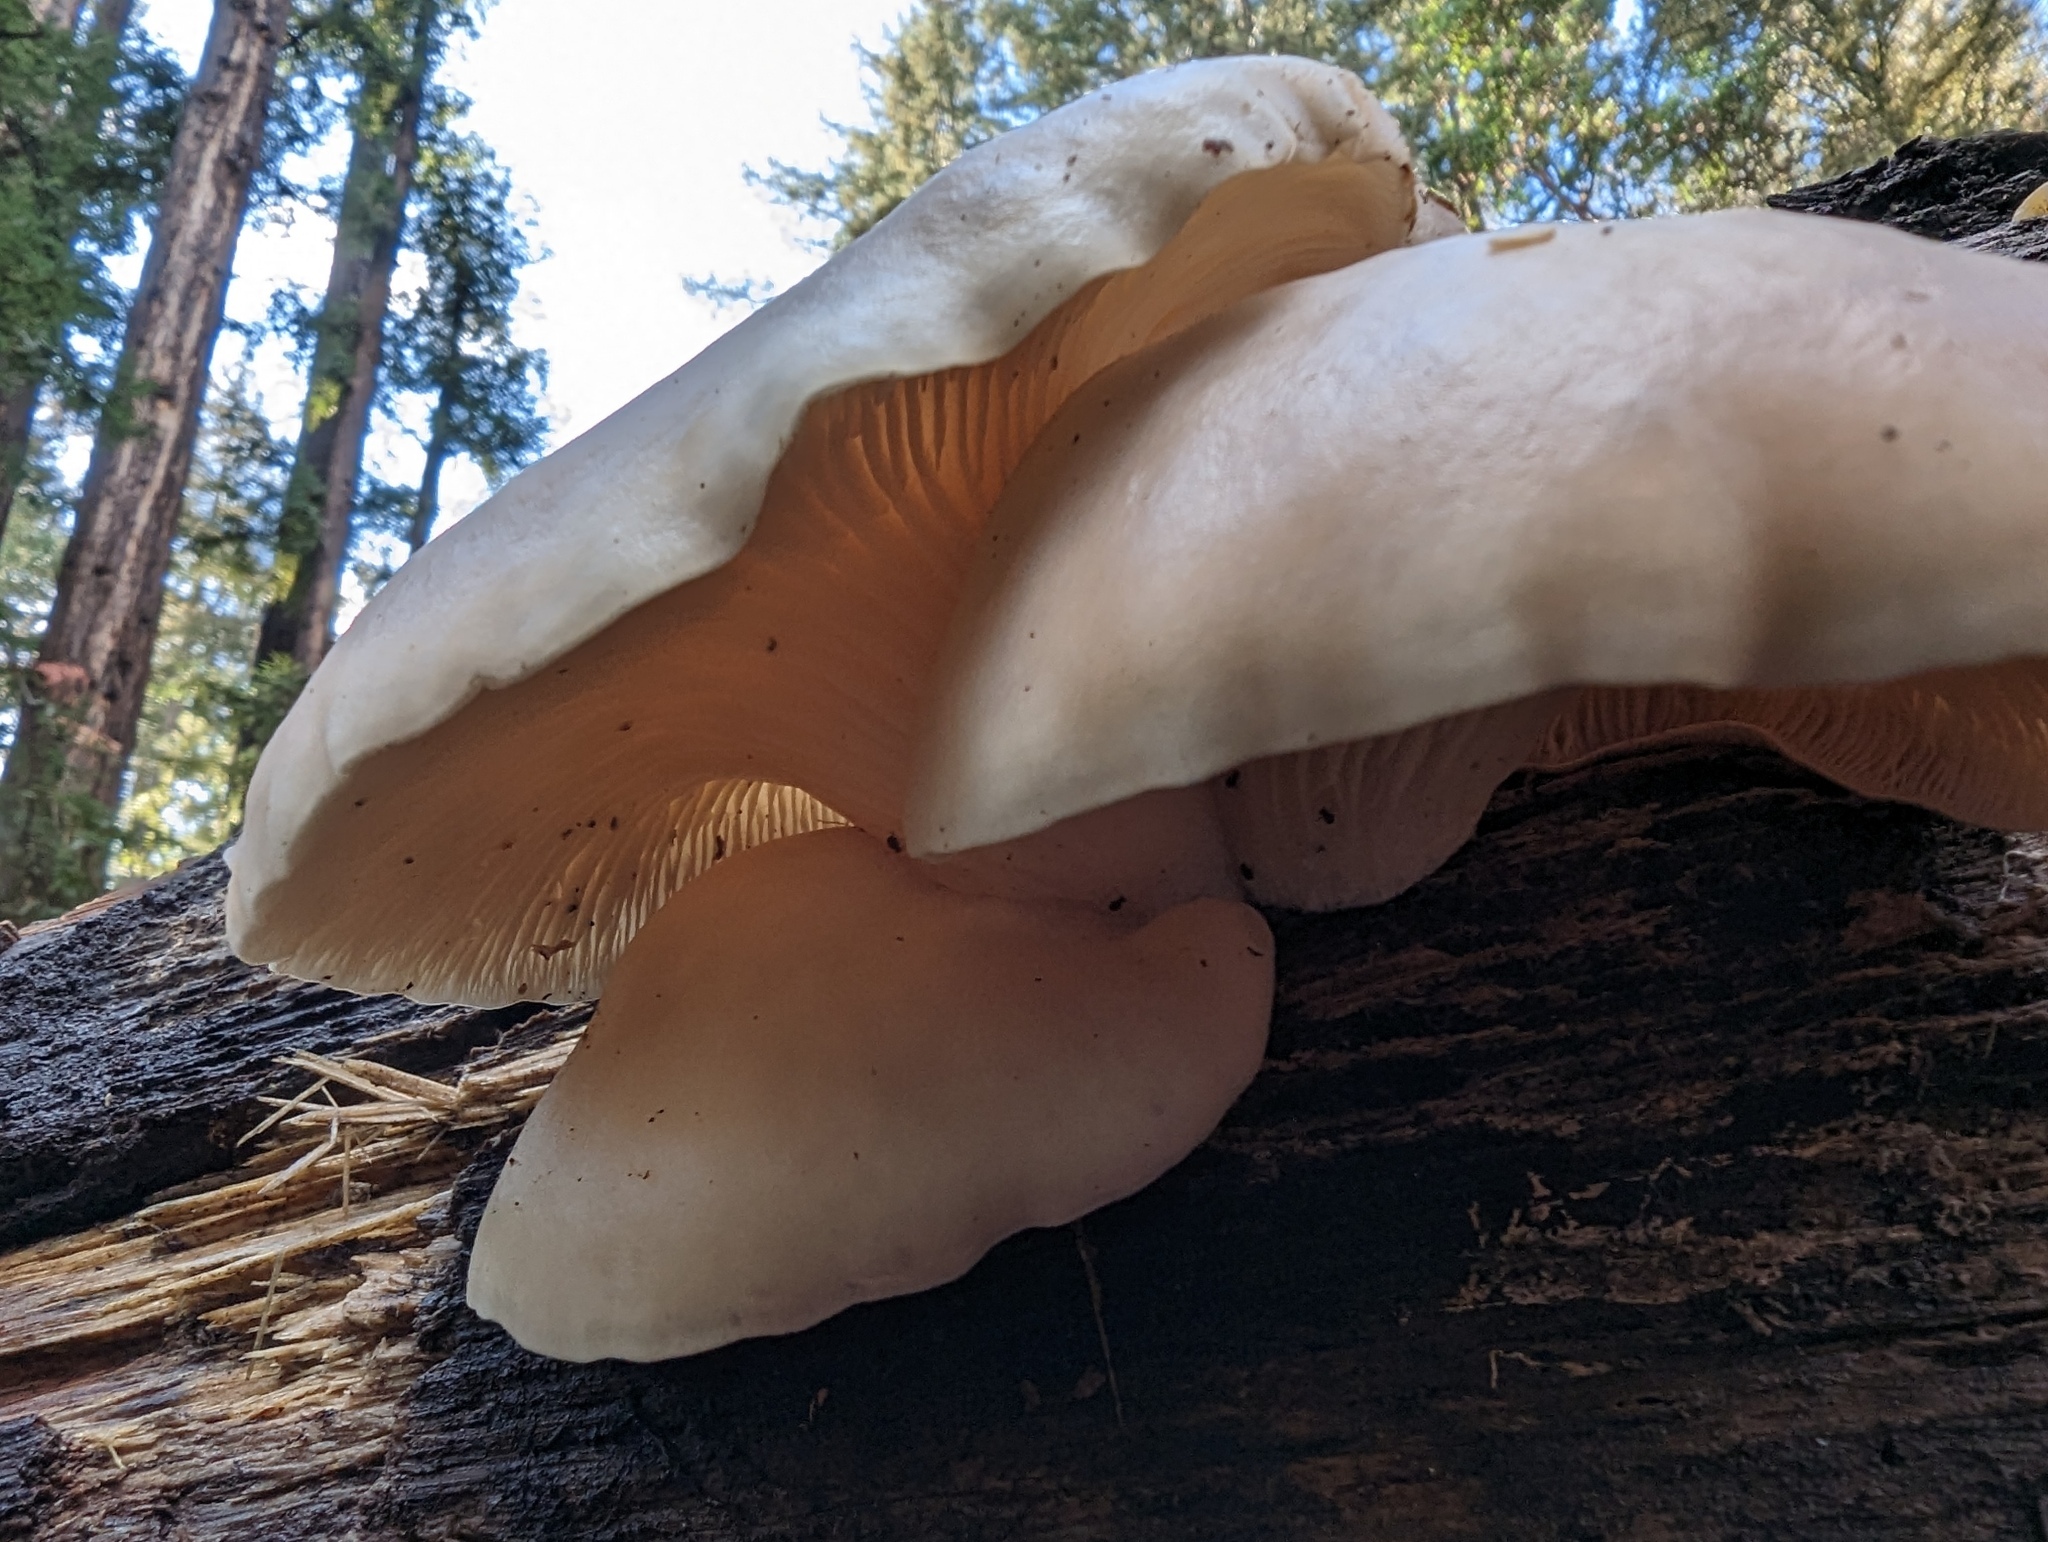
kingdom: Fungi
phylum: Basidiomycota
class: Agaricomycetes
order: Agaricales
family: Pleurotaceae
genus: Pleurotus
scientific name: Pleurotus ostreatus
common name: Oyster mushroom
